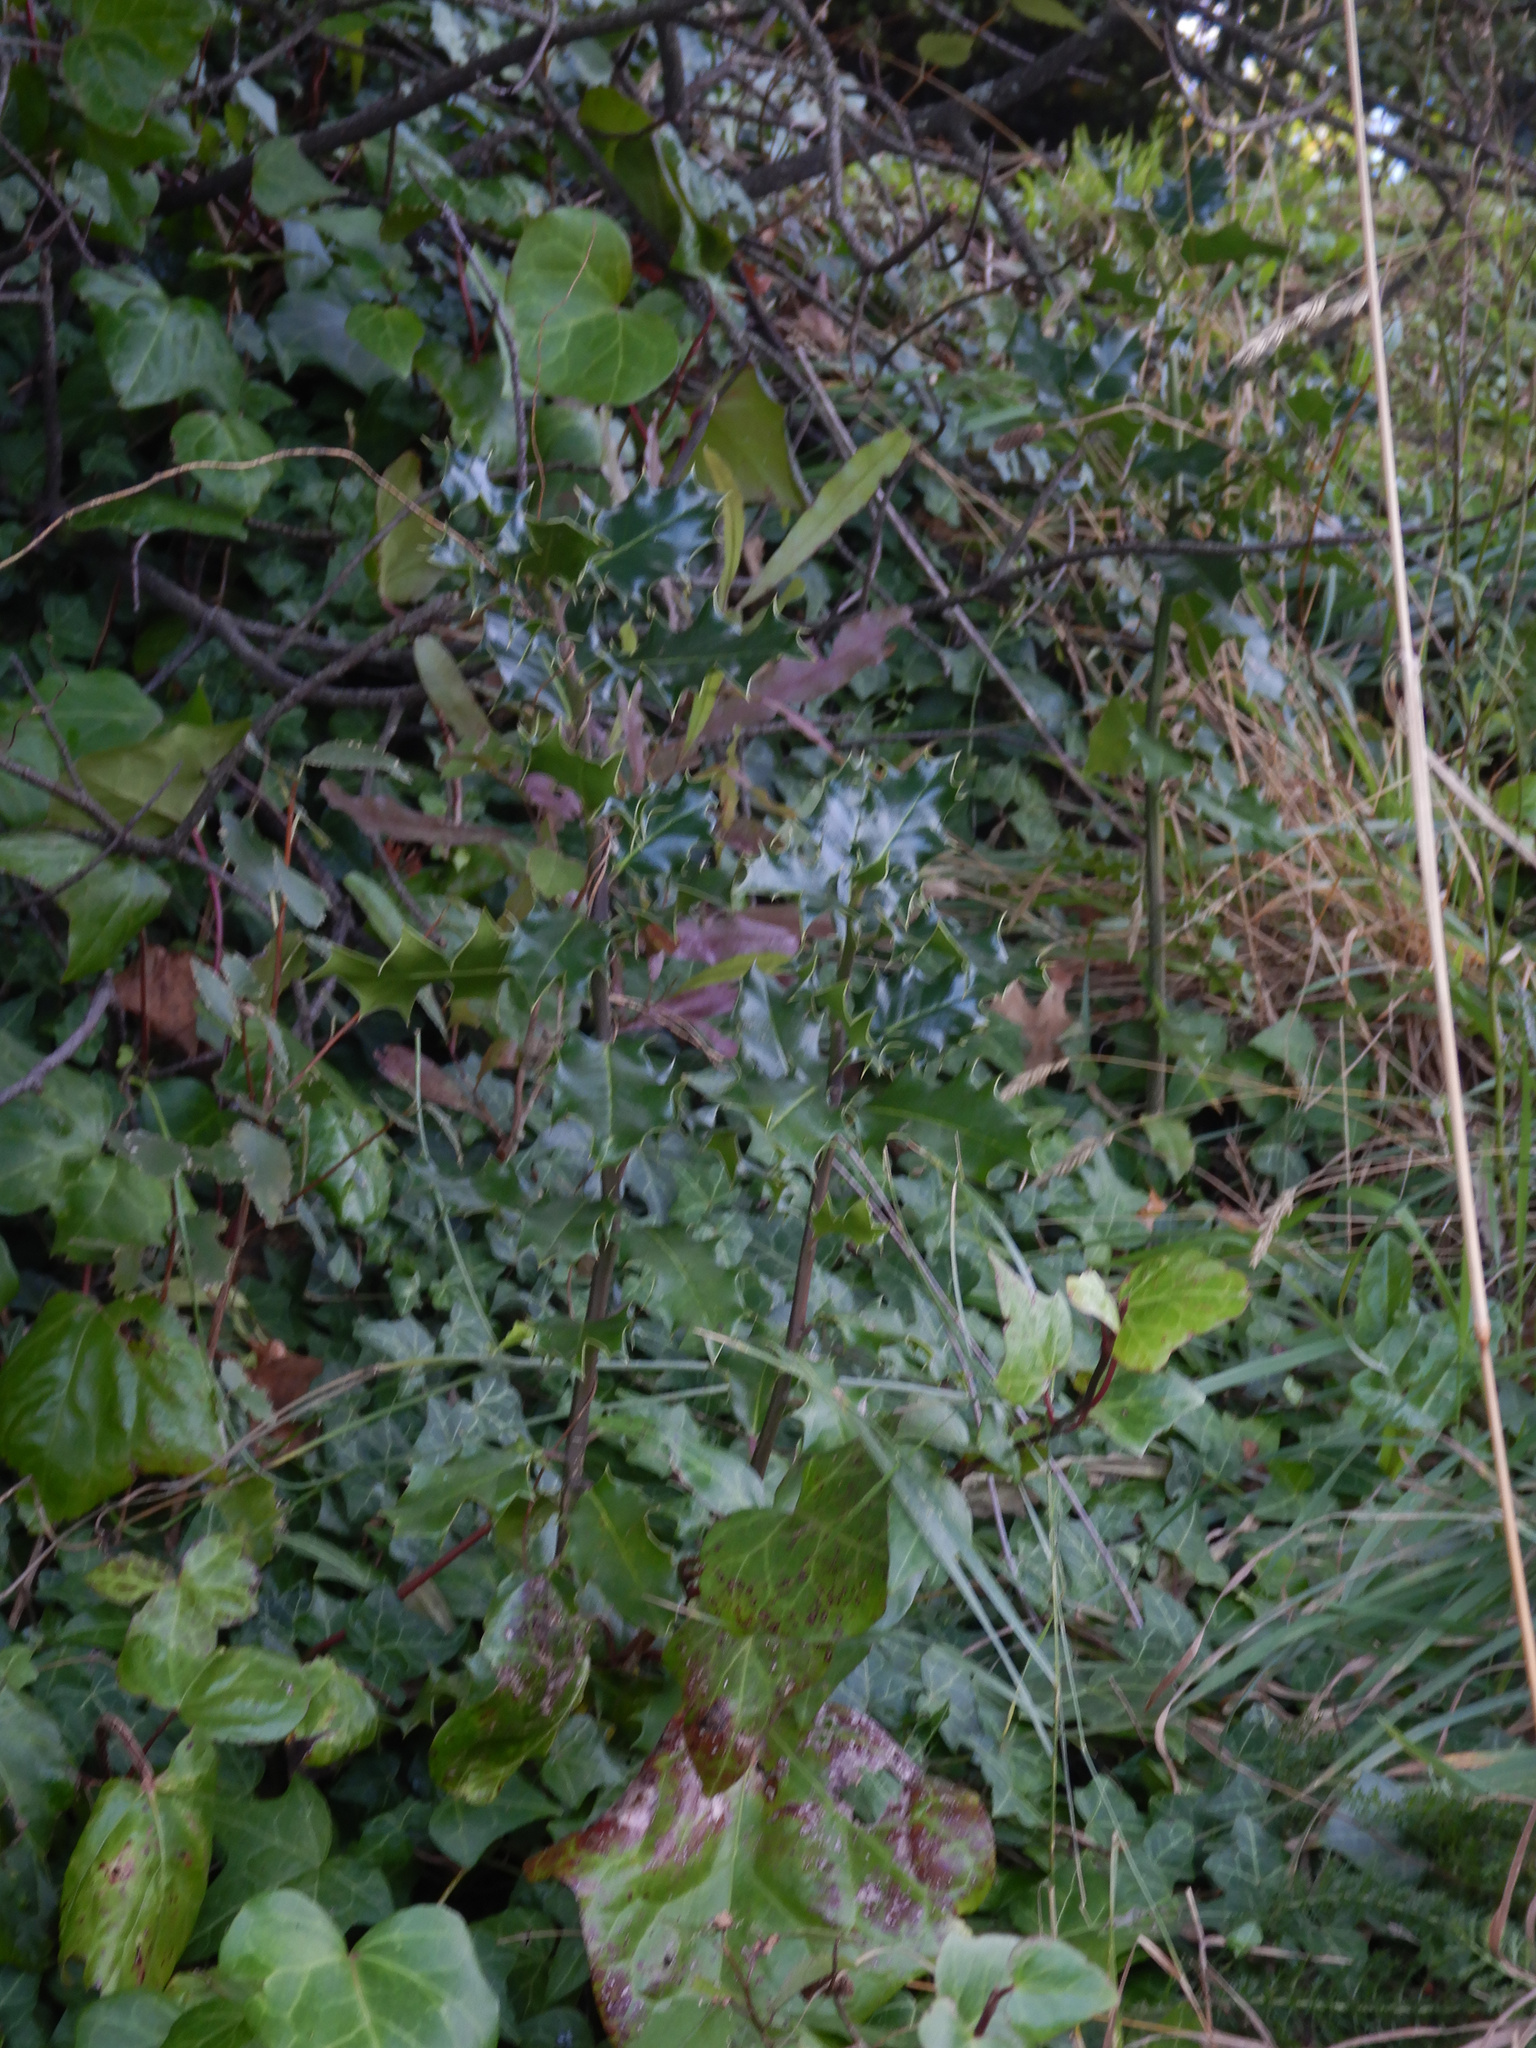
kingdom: Plantae
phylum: Tracheophyta
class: Magnoliopsida
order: Aquifoliales
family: Aquifoliaceae
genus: Ilex
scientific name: Ilex aquifolium
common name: English holly
